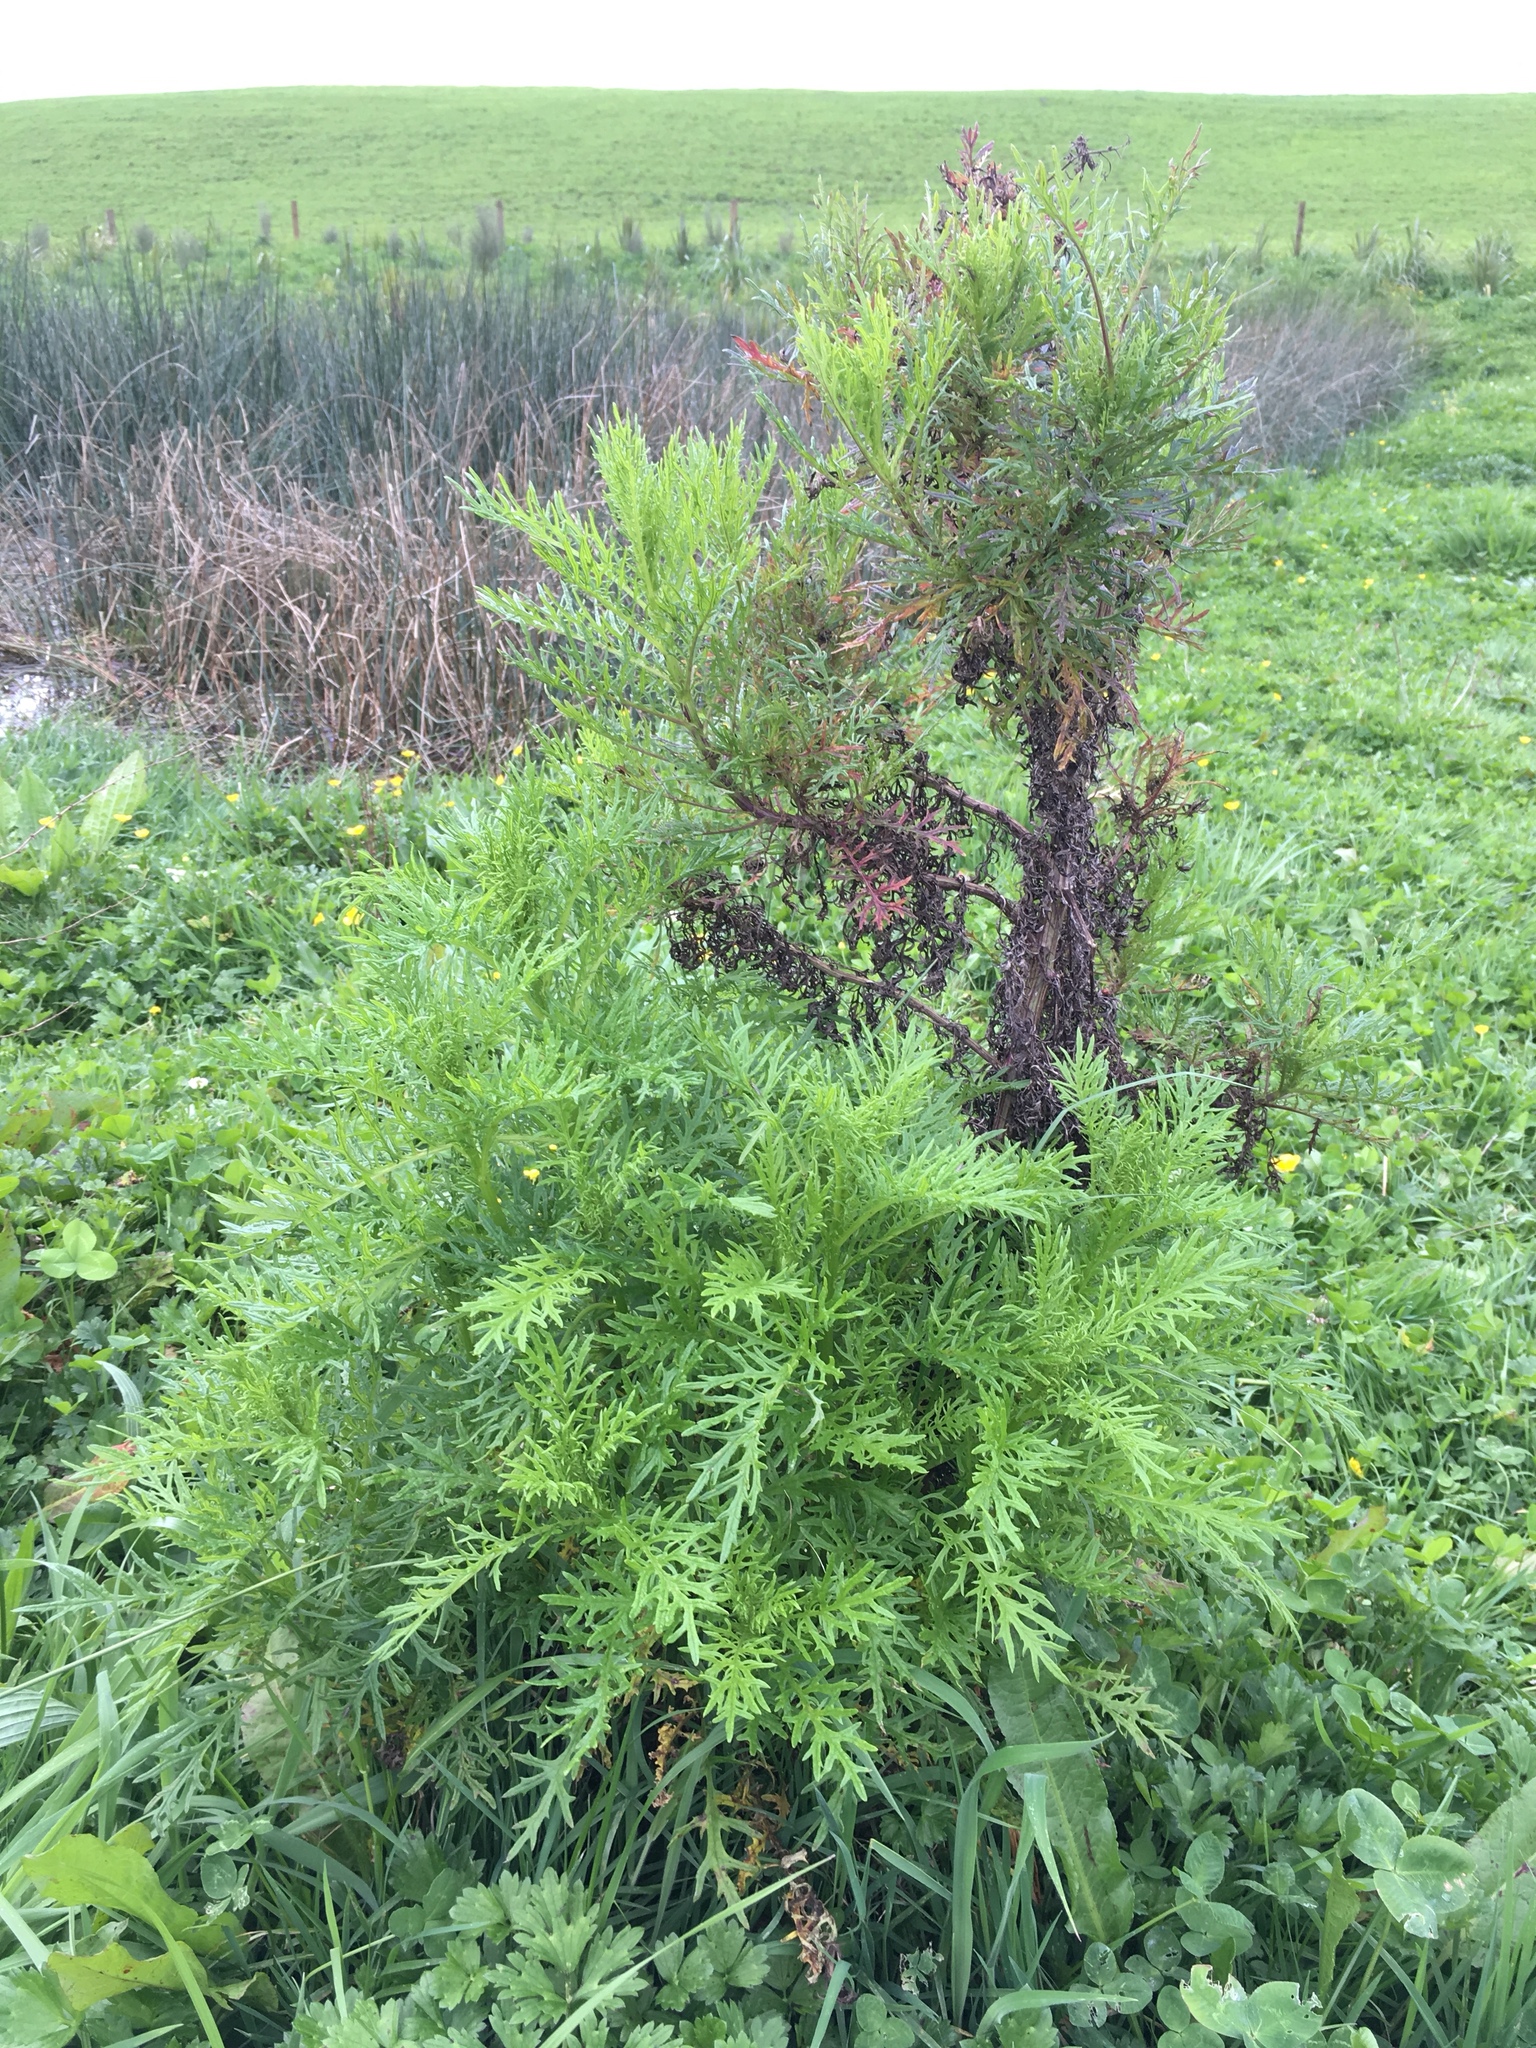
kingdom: Plantae
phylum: Tracheophyta
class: Magnoliopsida
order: Asterales
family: Asteraceae
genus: Senecio
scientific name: Senecio bipinnatisectus
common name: Australian fireweed
